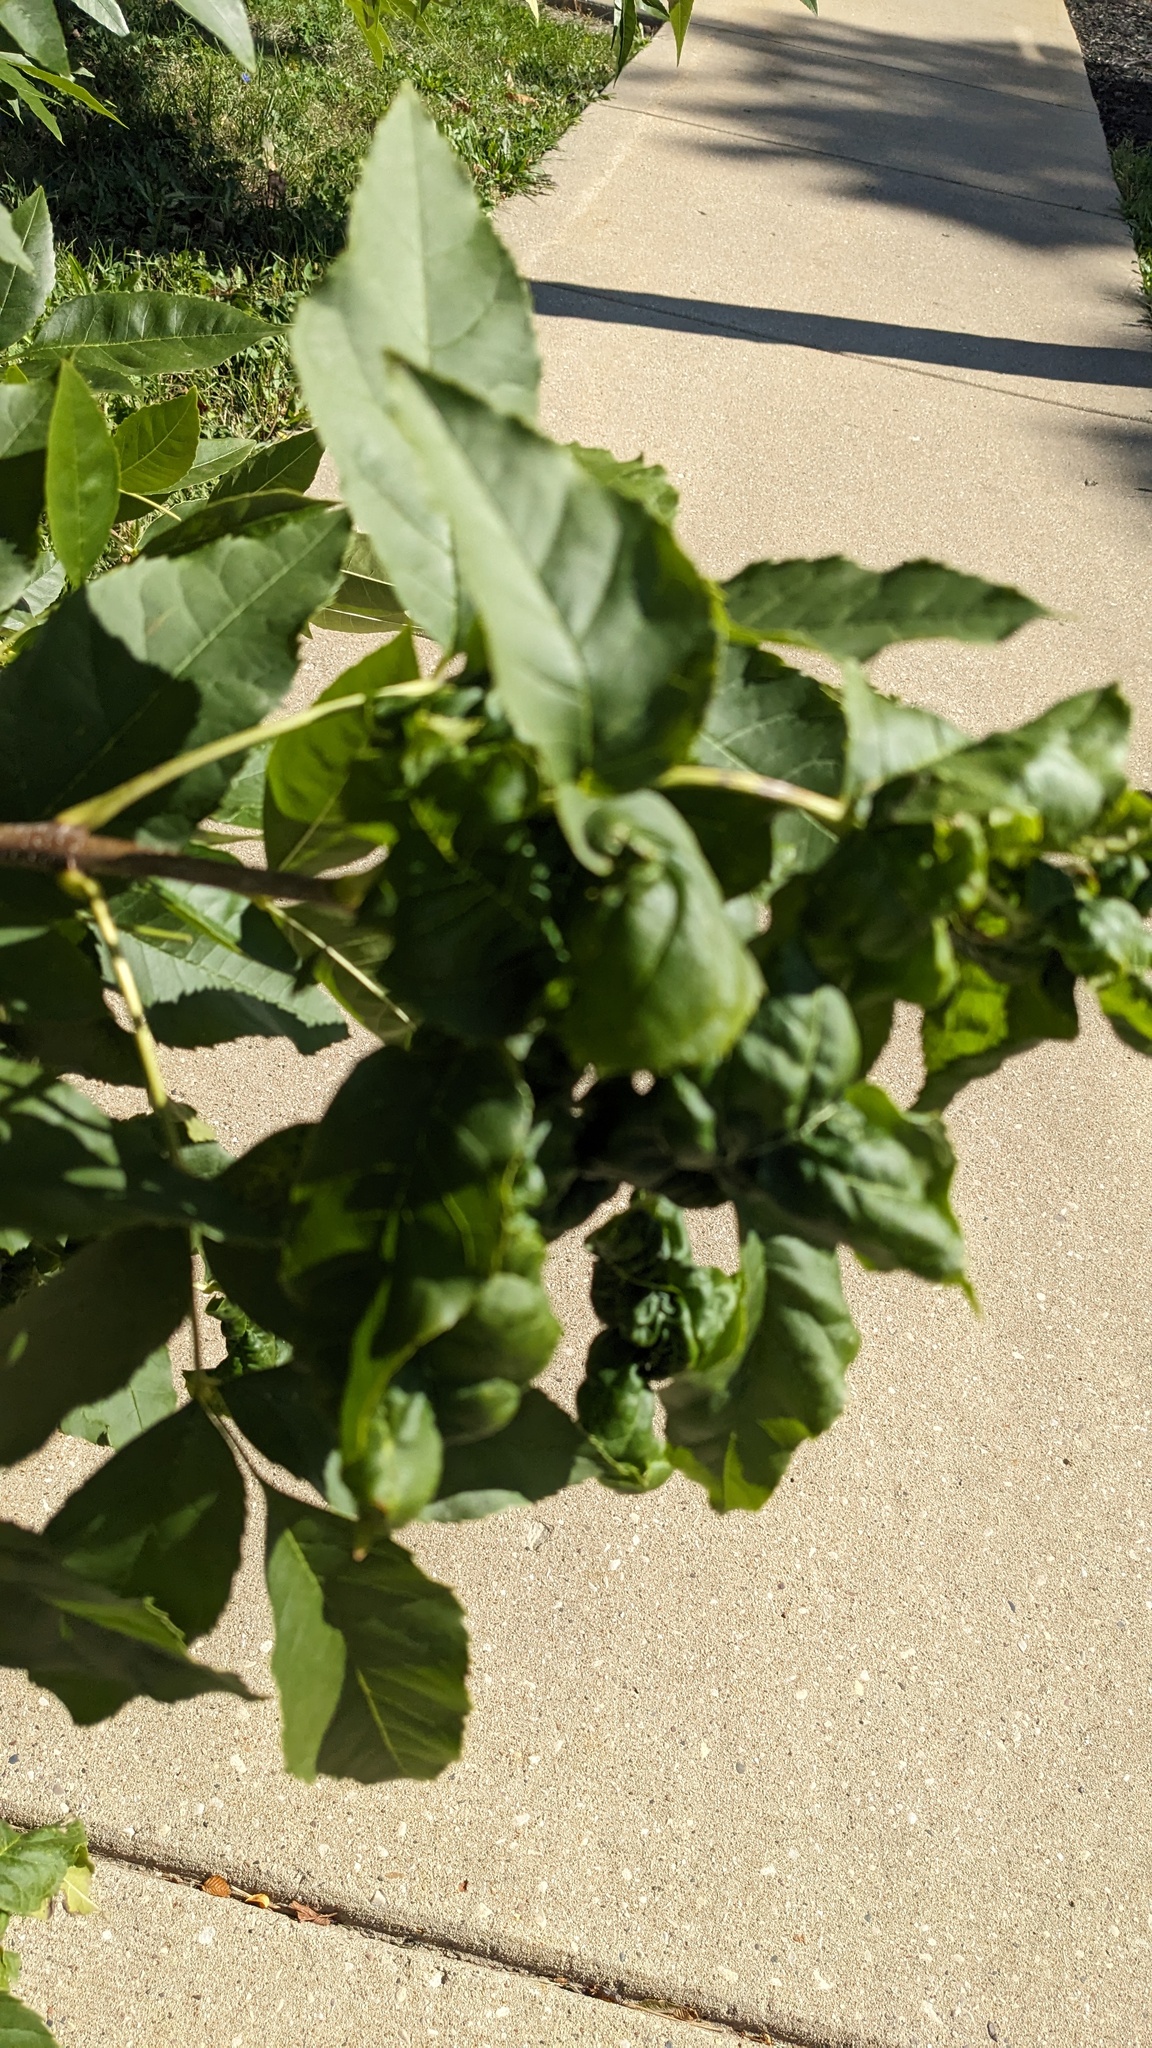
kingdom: Animalia
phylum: Arthropoda
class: Insecta
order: Hemiptera
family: Aphididae
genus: Prociphilus
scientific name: Prociphilus fraxinifolii
